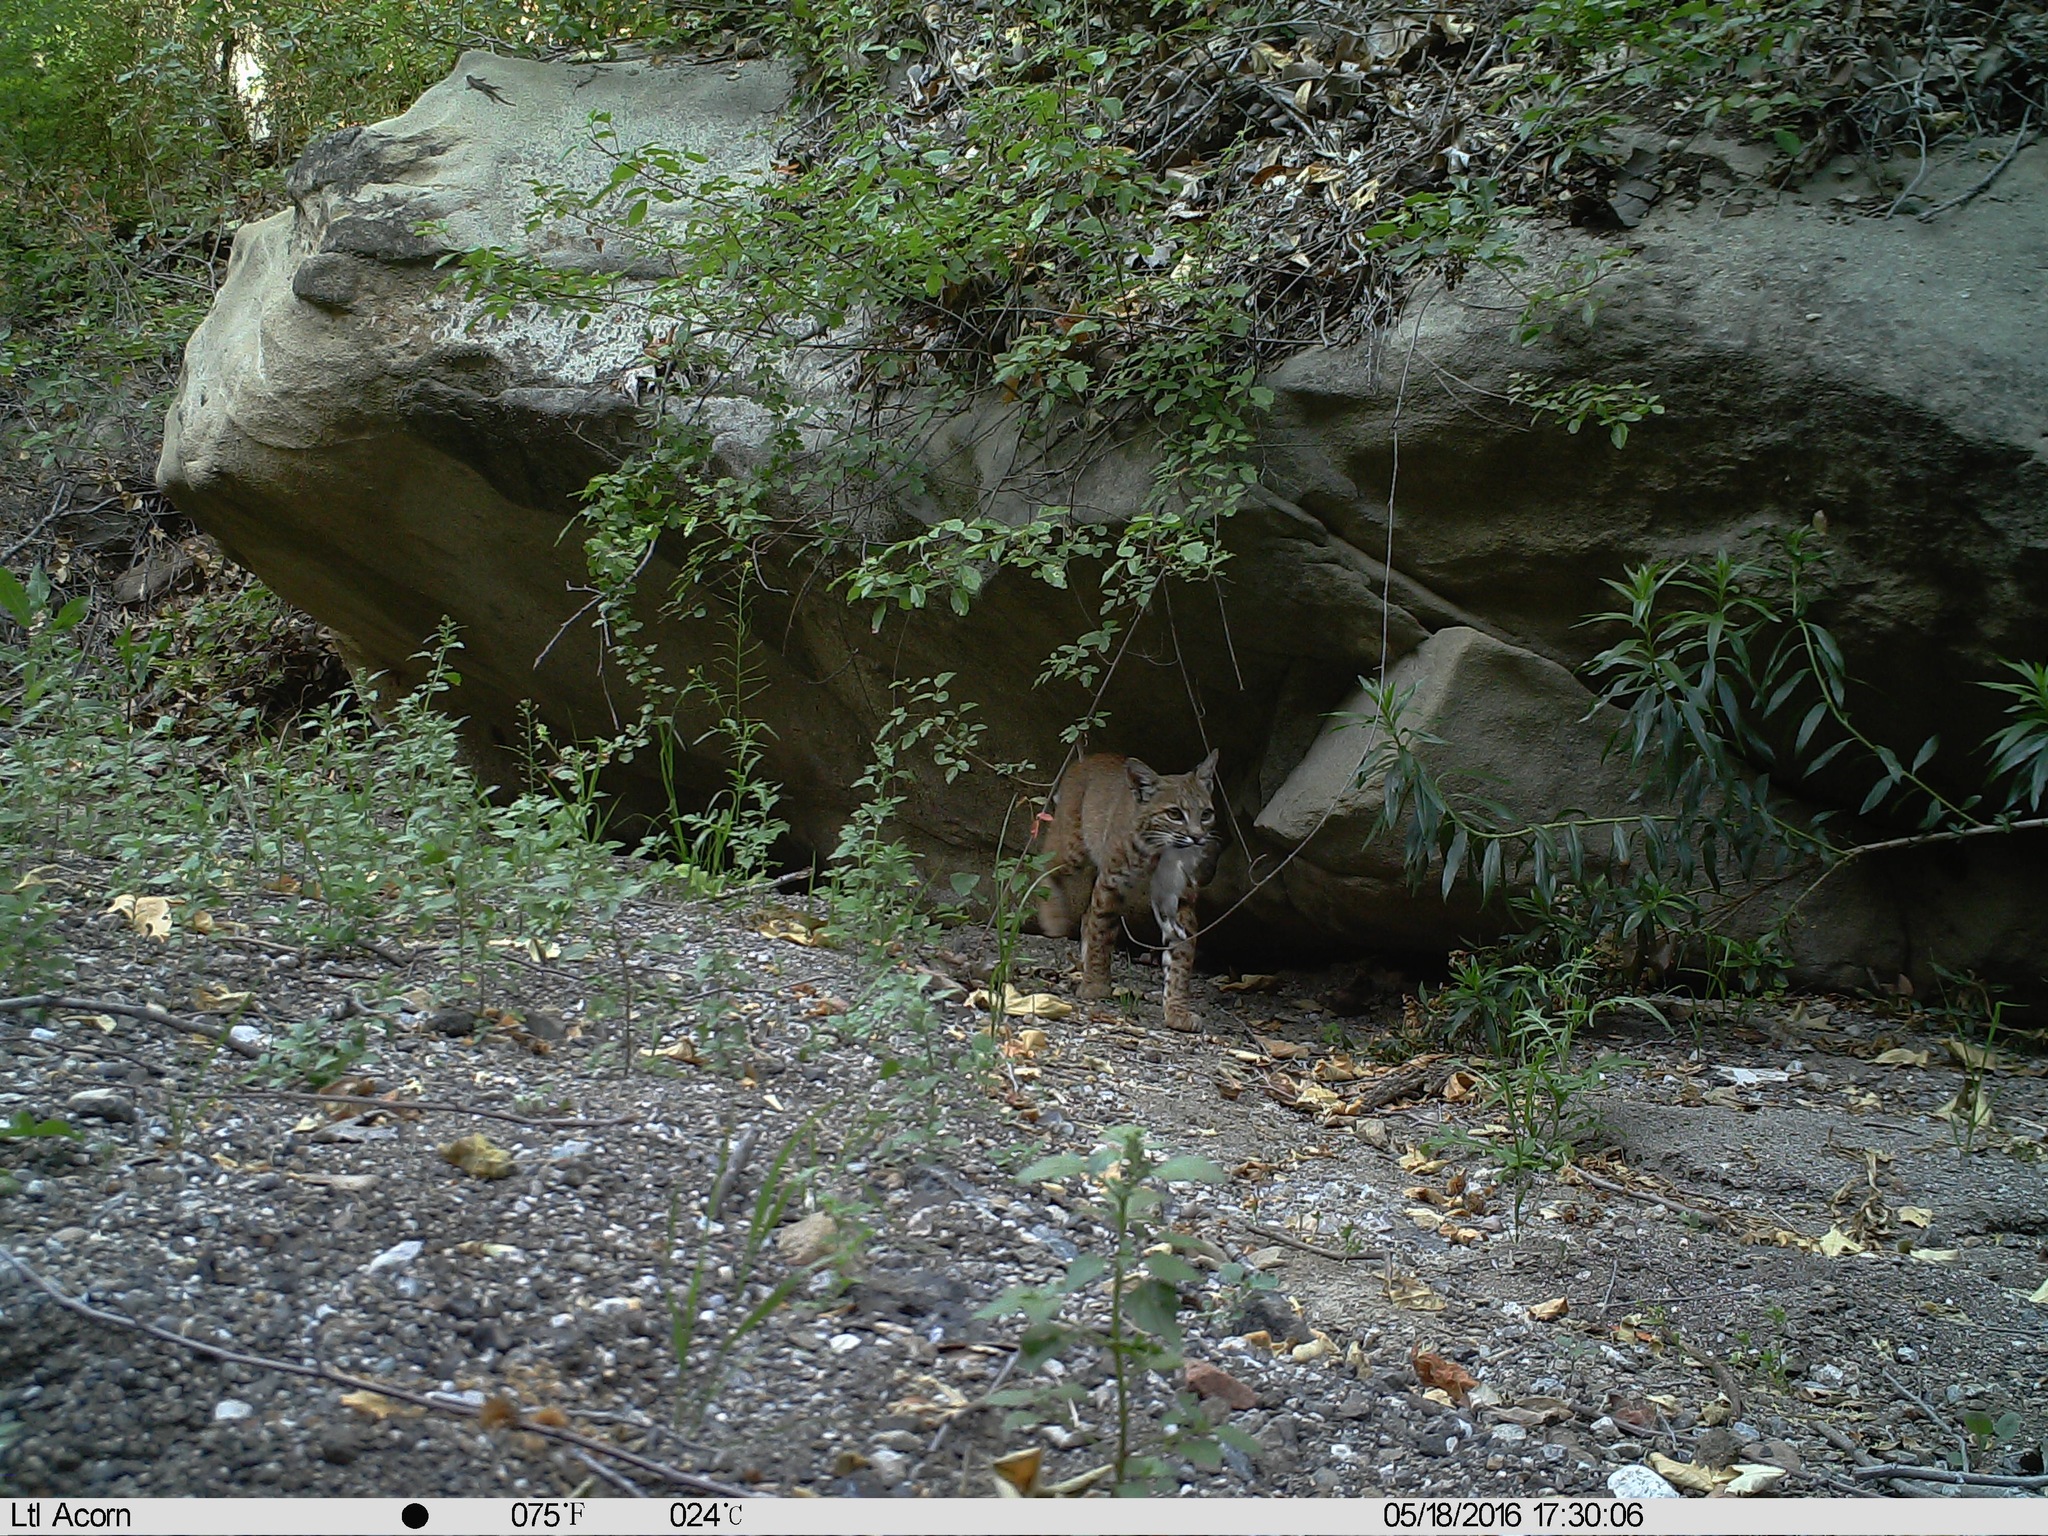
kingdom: Animalia
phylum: Chordata
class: Mammalia
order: Carnivora
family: Felidae
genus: Lynx
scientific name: Lynx rufus
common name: Bobcat
